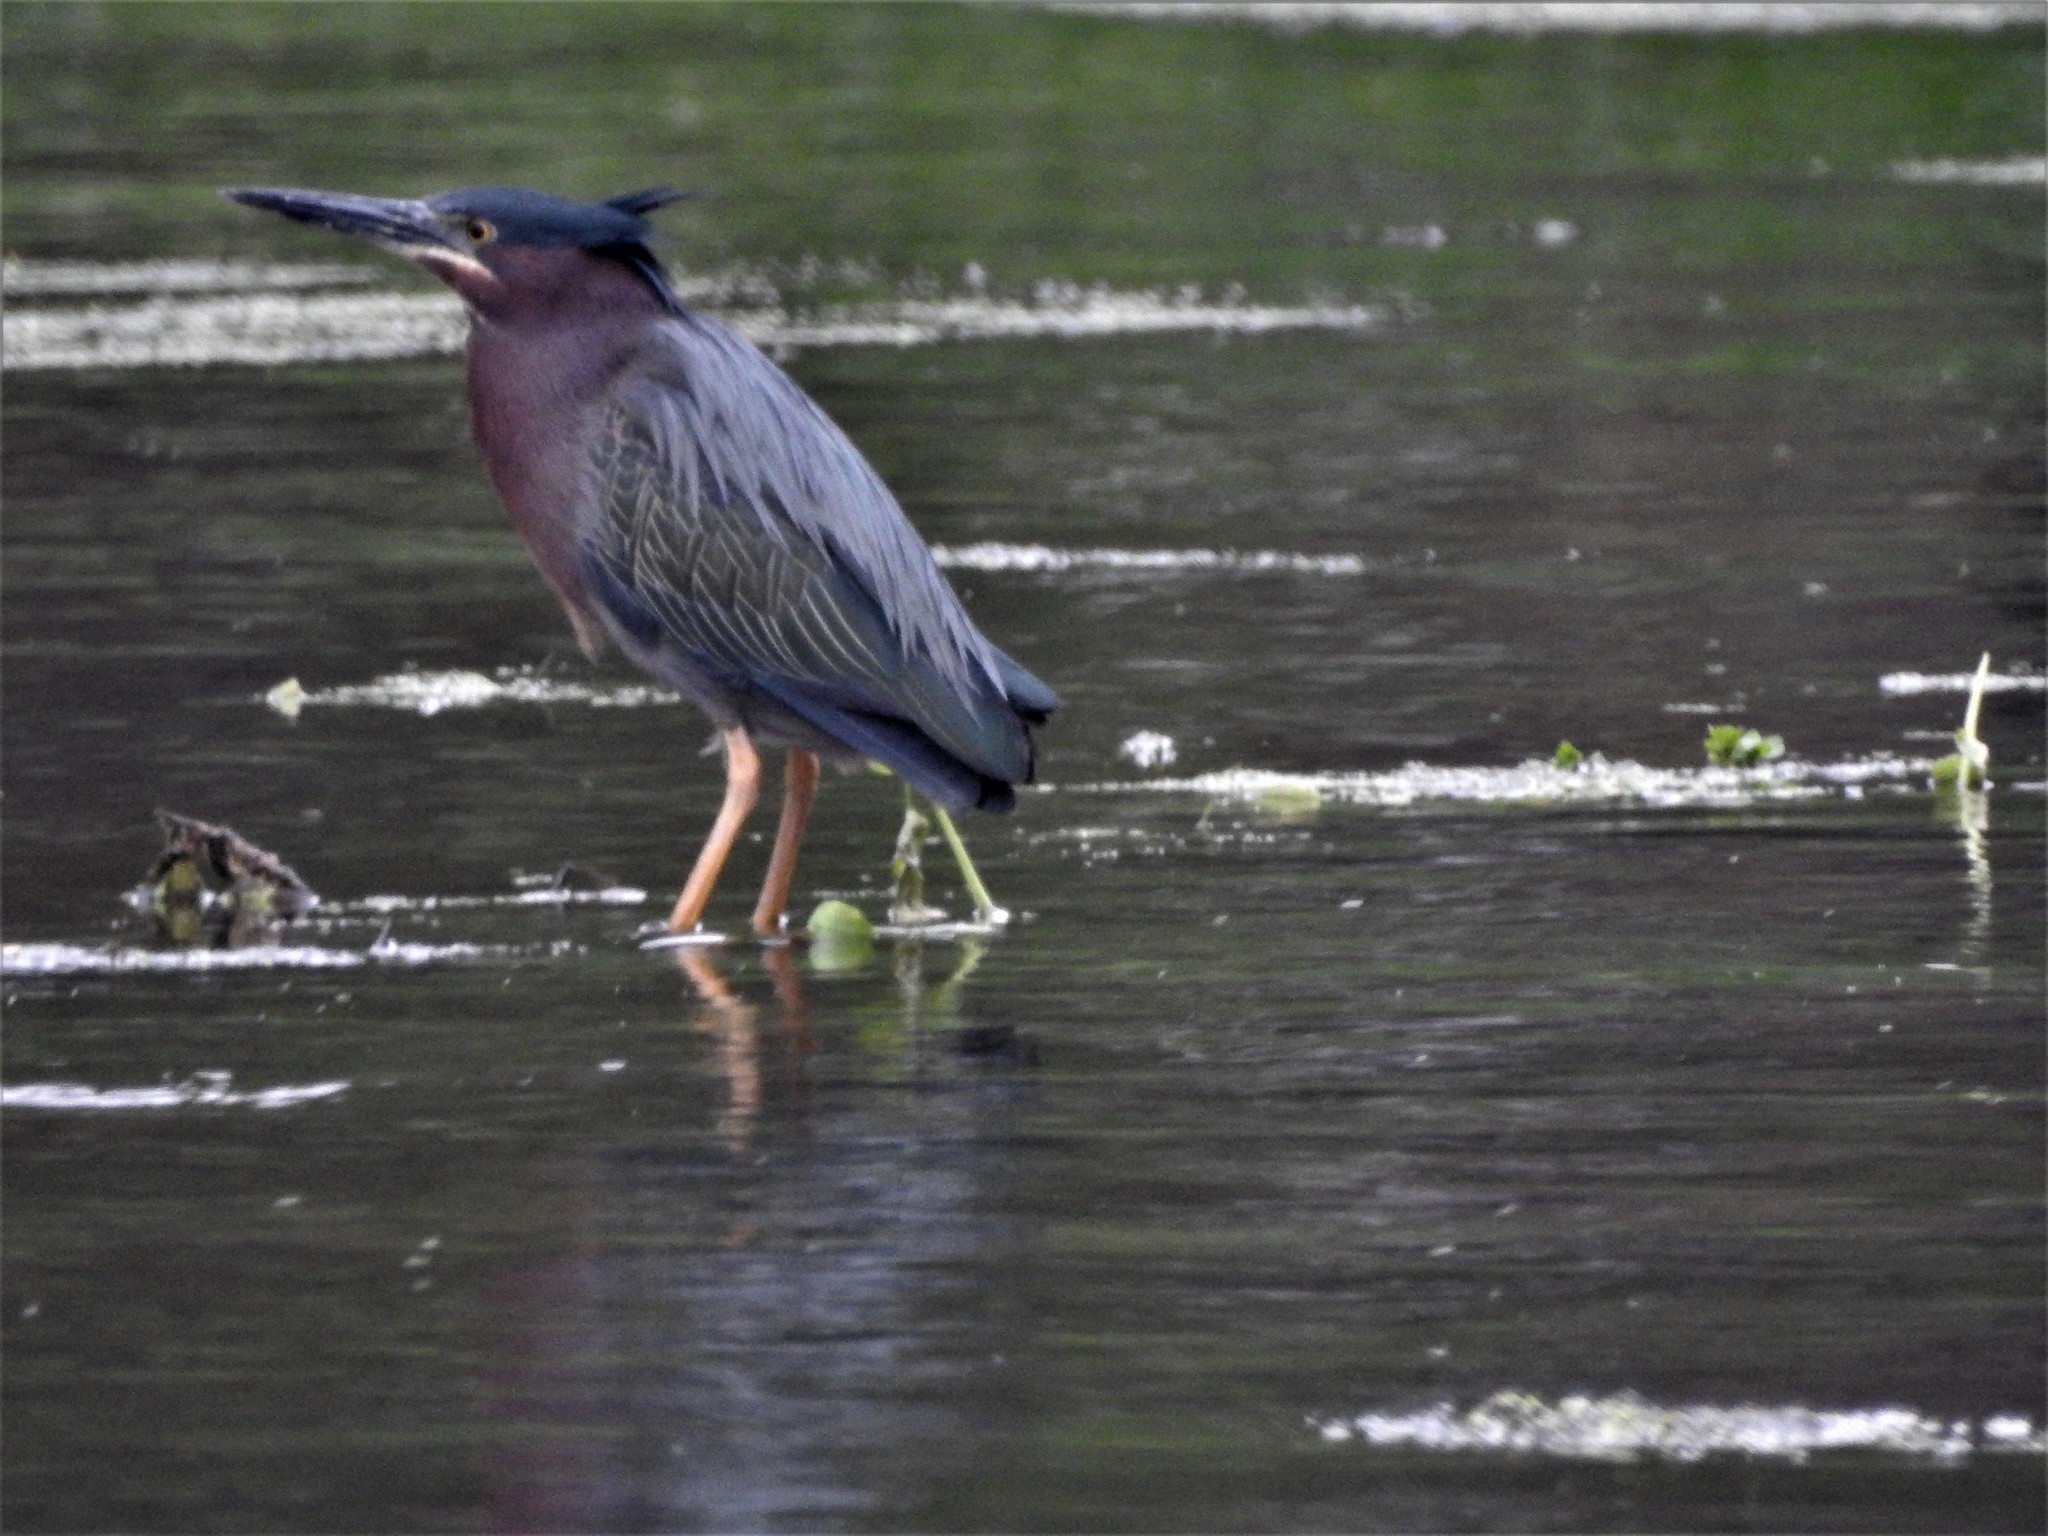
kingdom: Animalia
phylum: Chordata
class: Aves
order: Pelecaniformes
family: Ardeidae
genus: Butorides
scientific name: Butorides virescens
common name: Green heron
